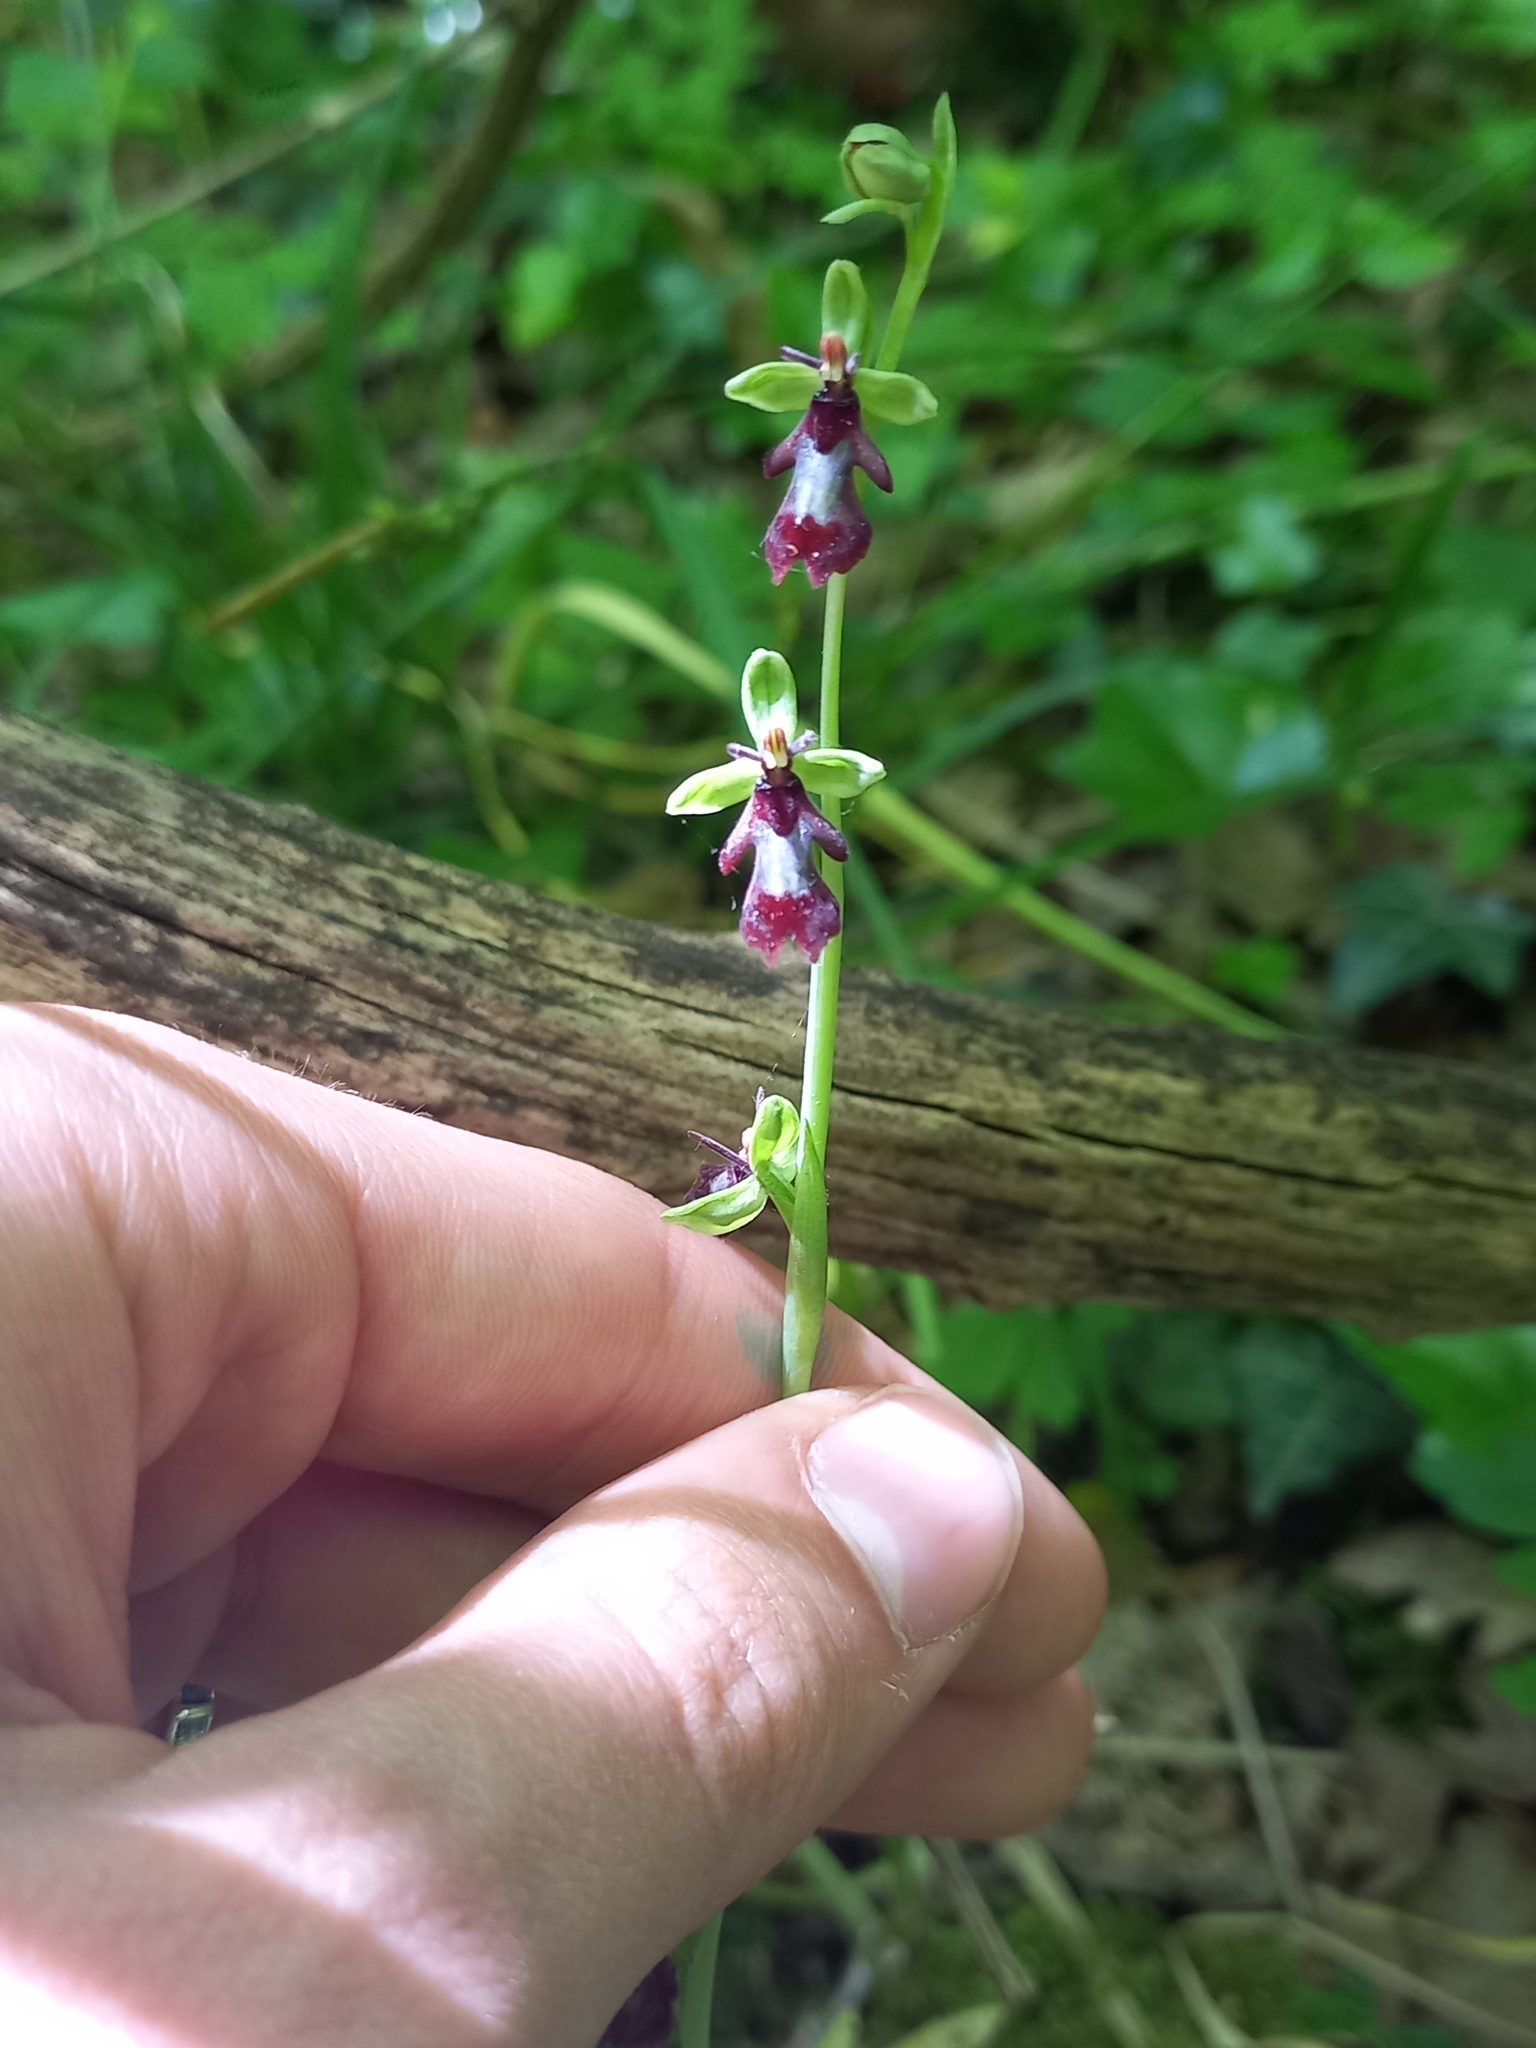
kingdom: Plantae
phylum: Tracheophyta
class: Liliopsida
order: Asparagales
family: Orchidaceae
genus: Ophrys
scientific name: Ophrys insectifera
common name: Fly orchid
